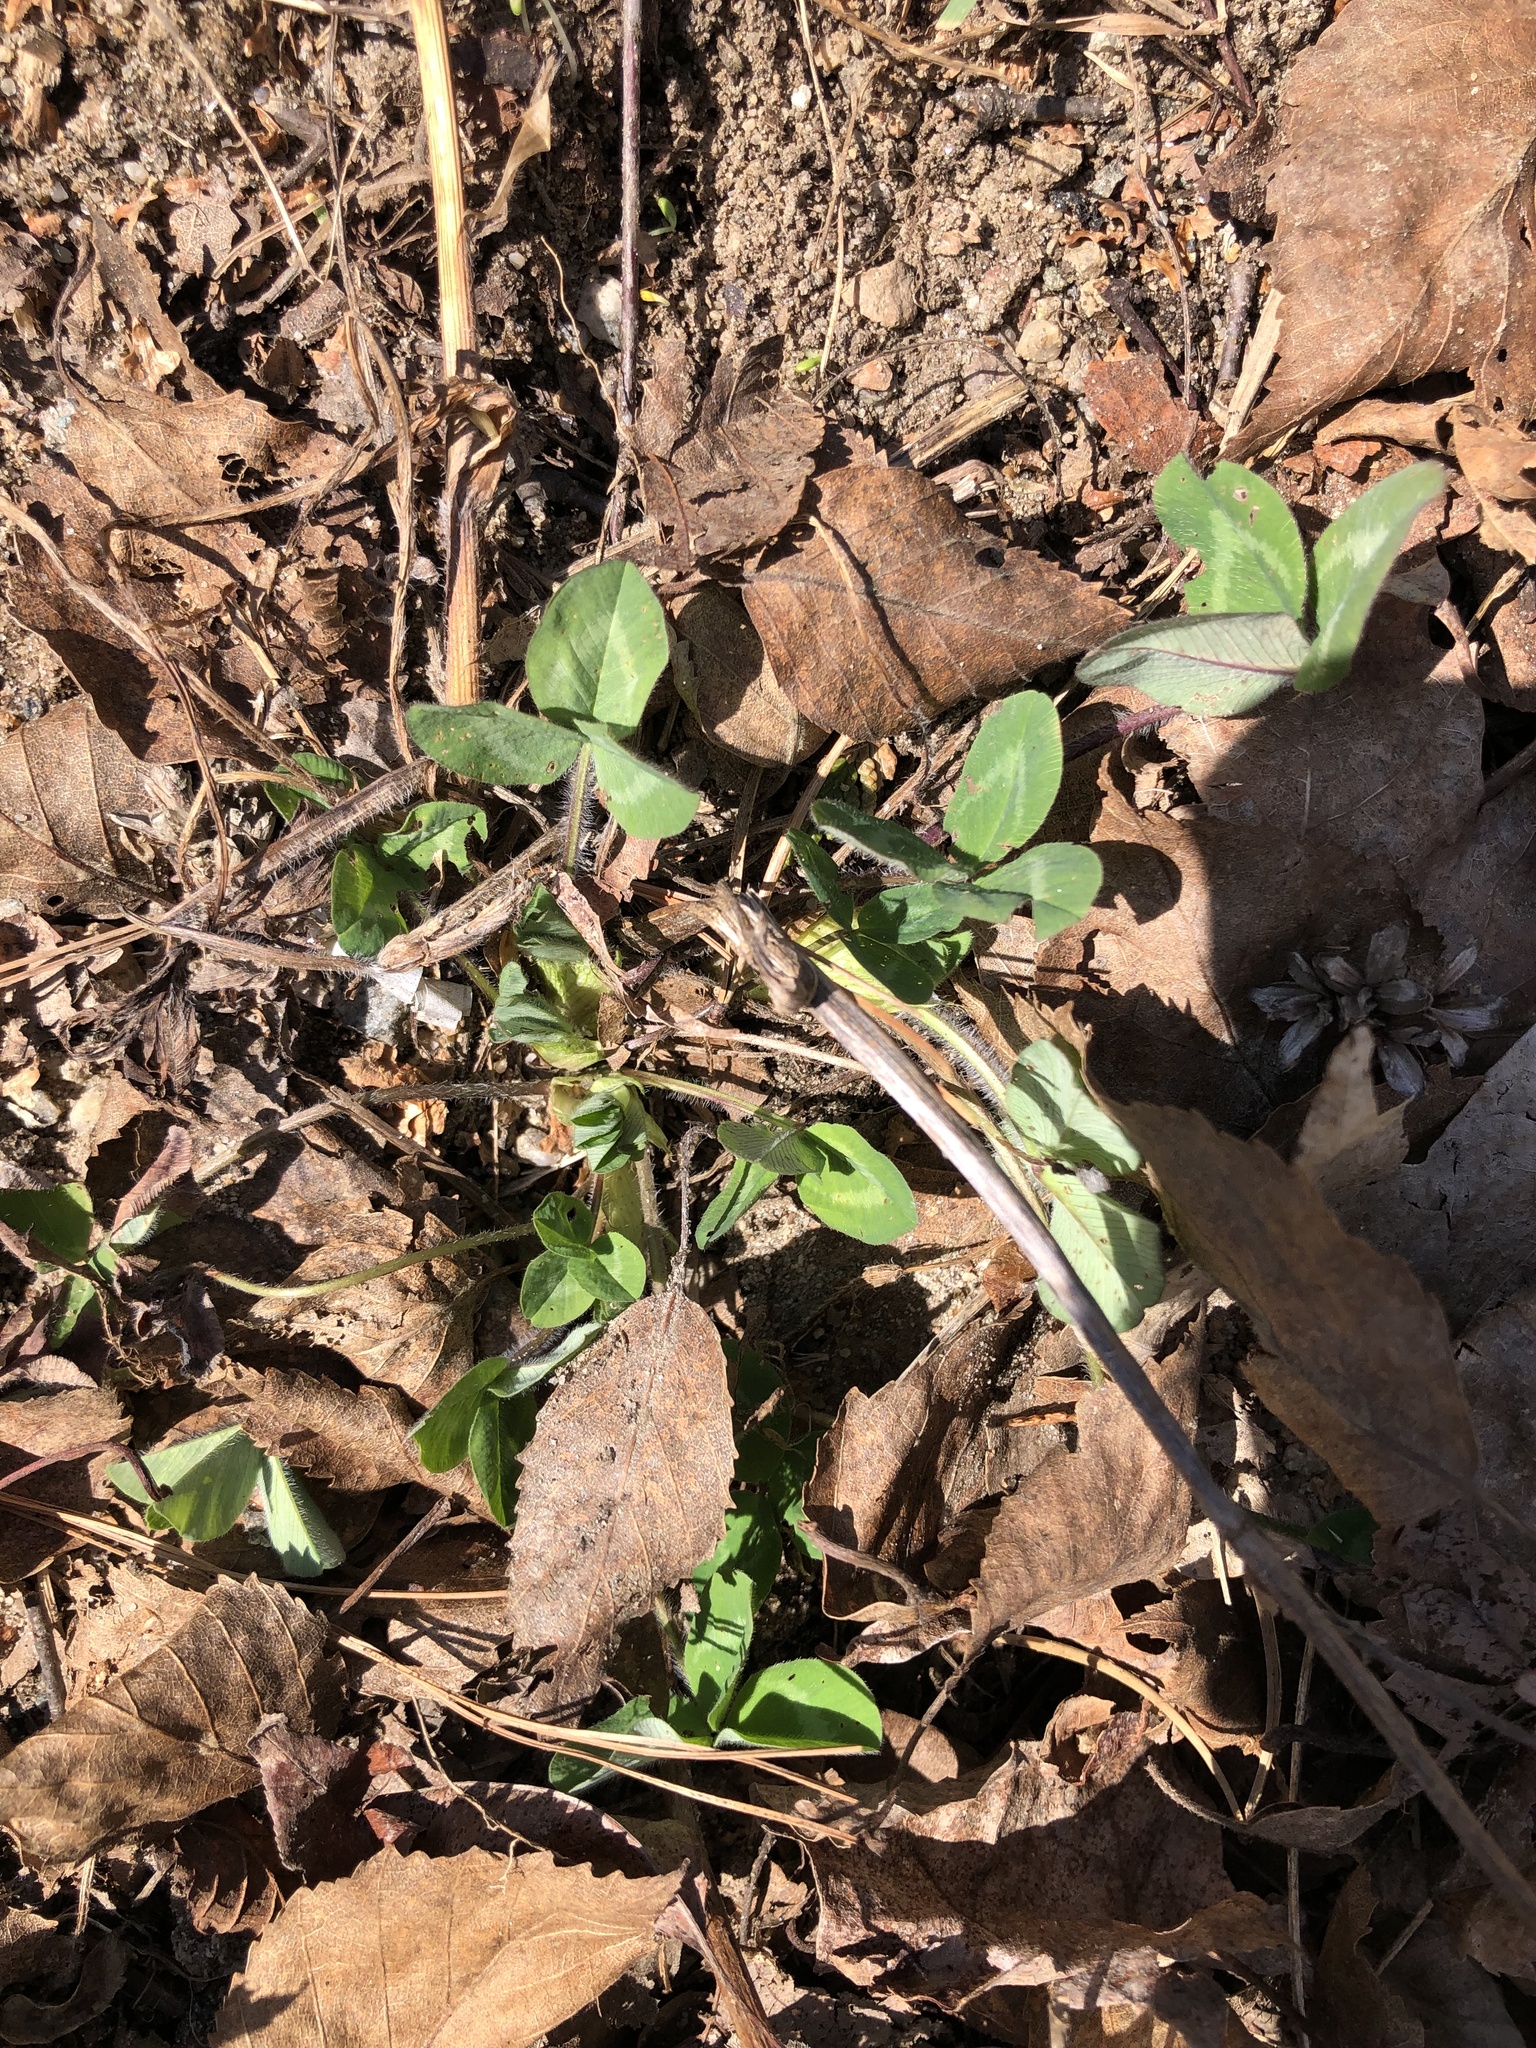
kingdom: Plantae
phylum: Tracheophyta
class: Magnoliopsida
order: Fabales
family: Fabaceae
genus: Trifolium
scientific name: Trifolium pratense
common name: Red clover
